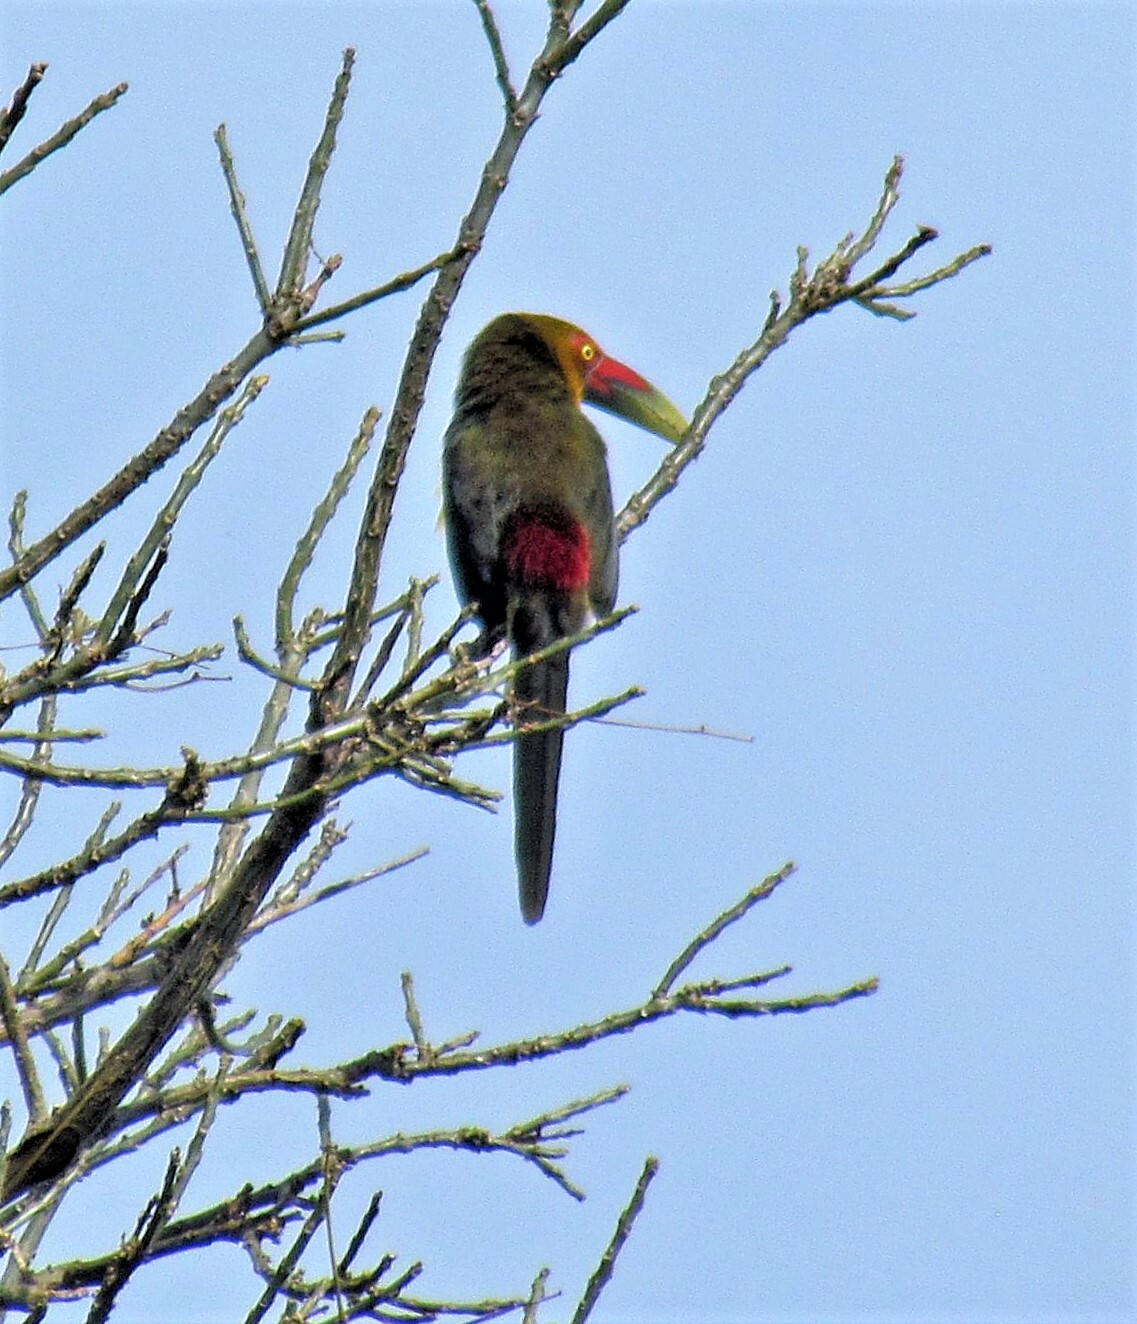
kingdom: Animalia
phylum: Chordata
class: Aves
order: Piciformes
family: Ramphastidae
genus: Pteroglossus
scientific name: Pteroglossus bailloni
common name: Saffron toucanet
